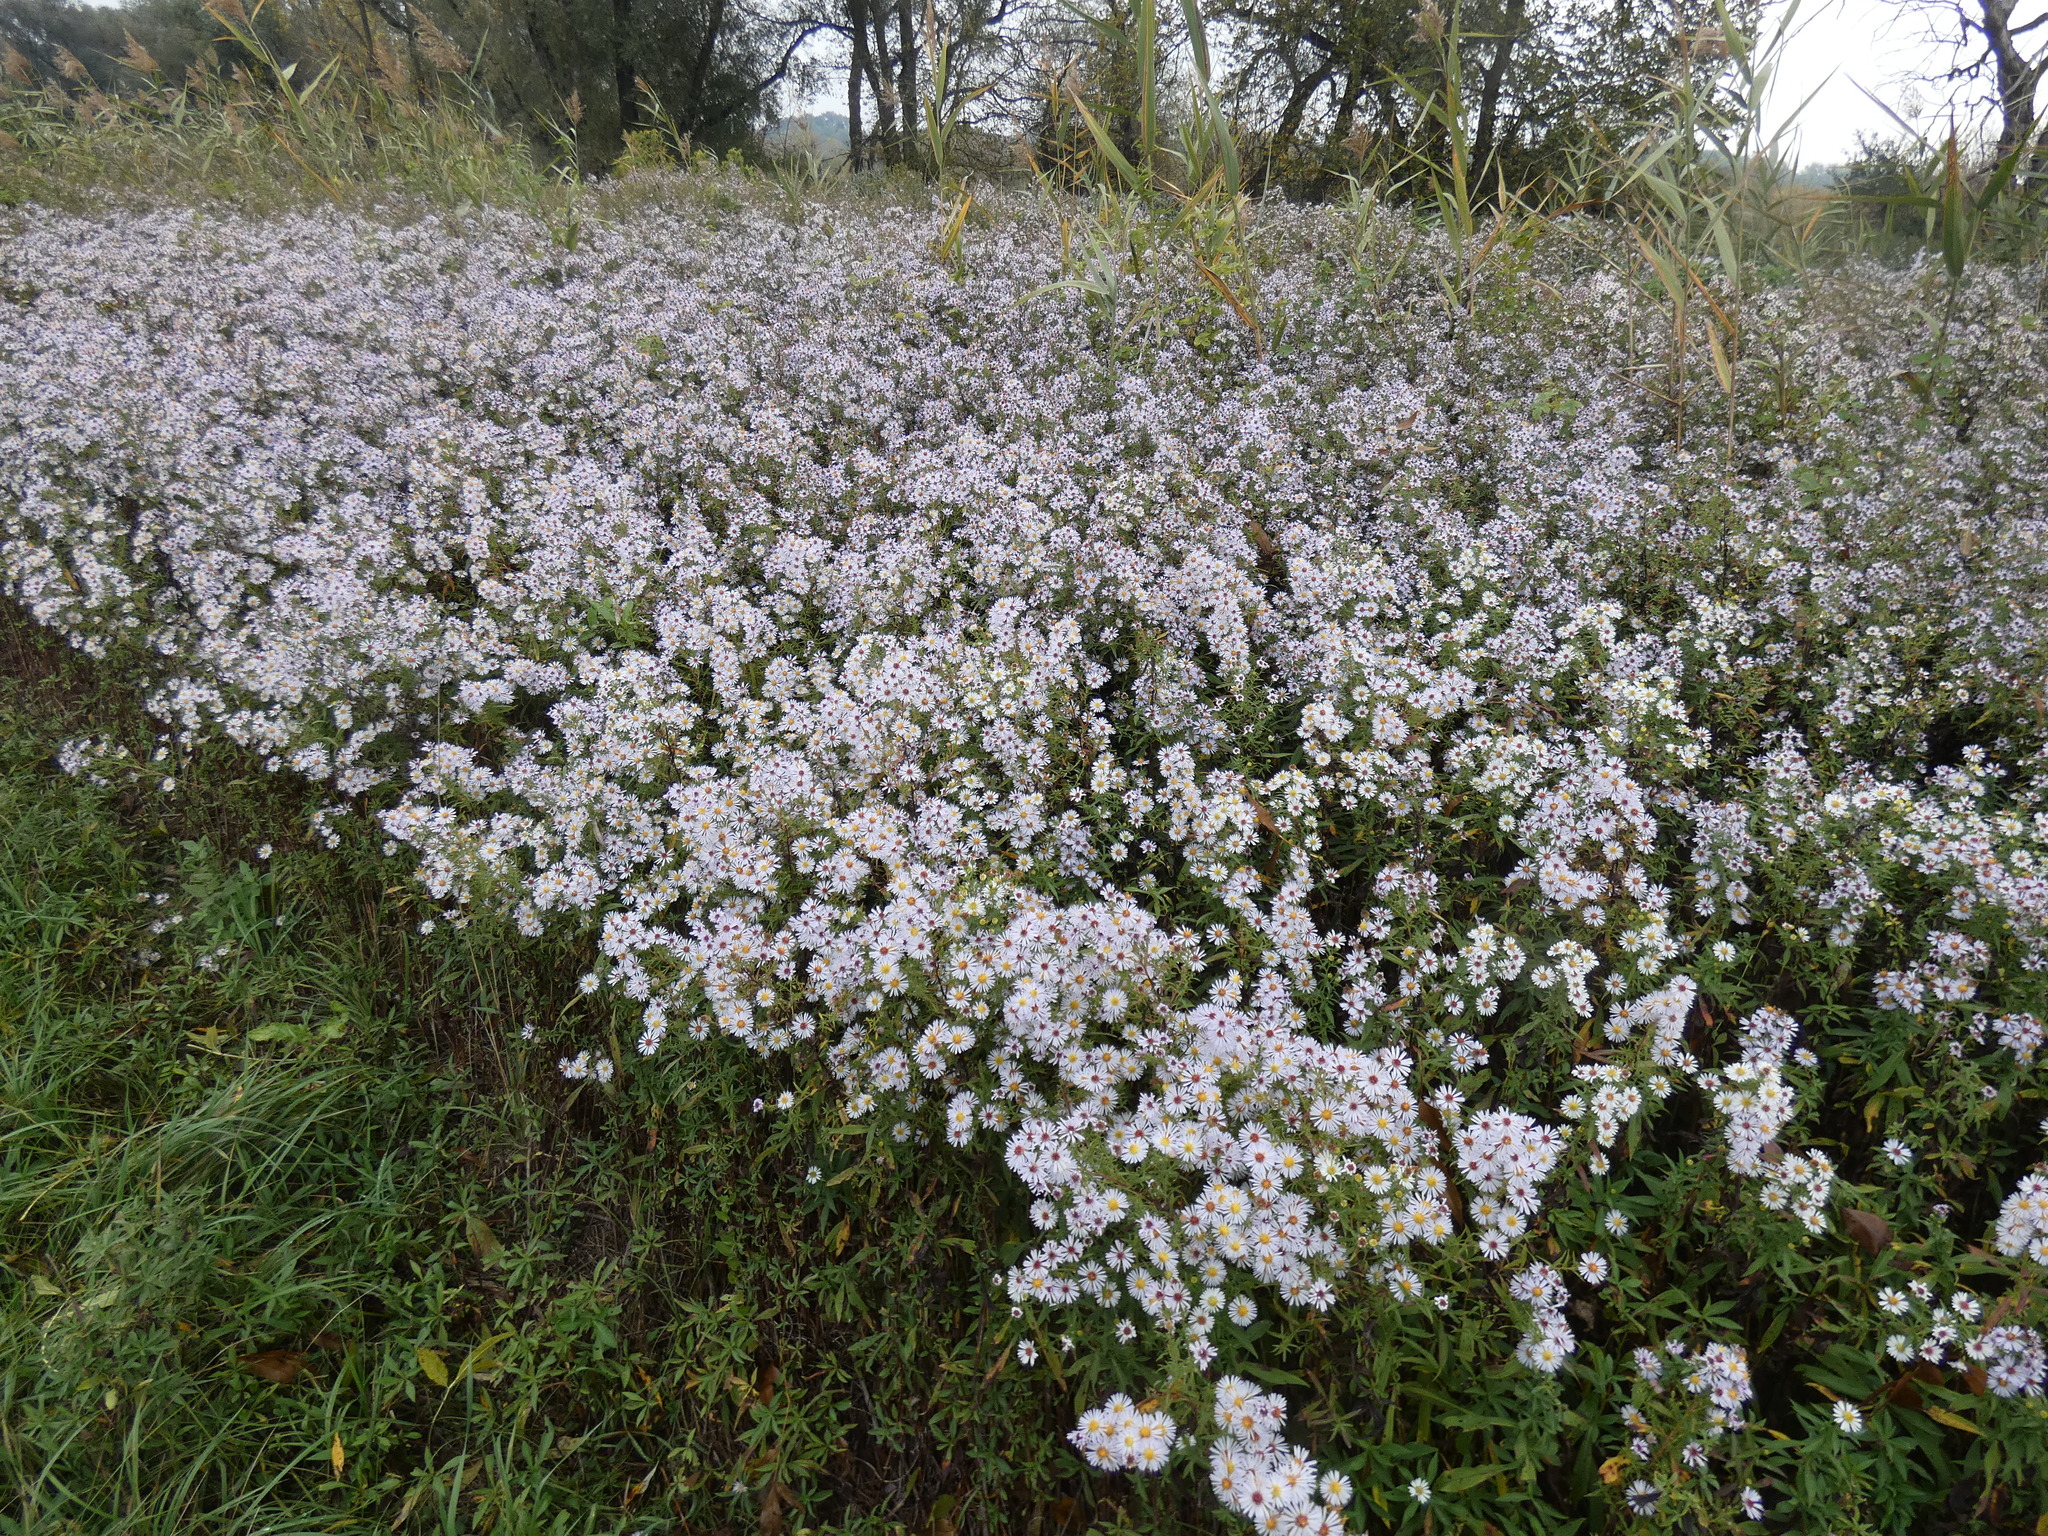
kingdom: Plantae
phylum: Tracheophyta
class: Magnoliopsida
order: Asterales
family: Asteraceae
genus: Symphyotrichum
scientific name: Symphyotrichum lanceolatum
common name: Panicled aster
